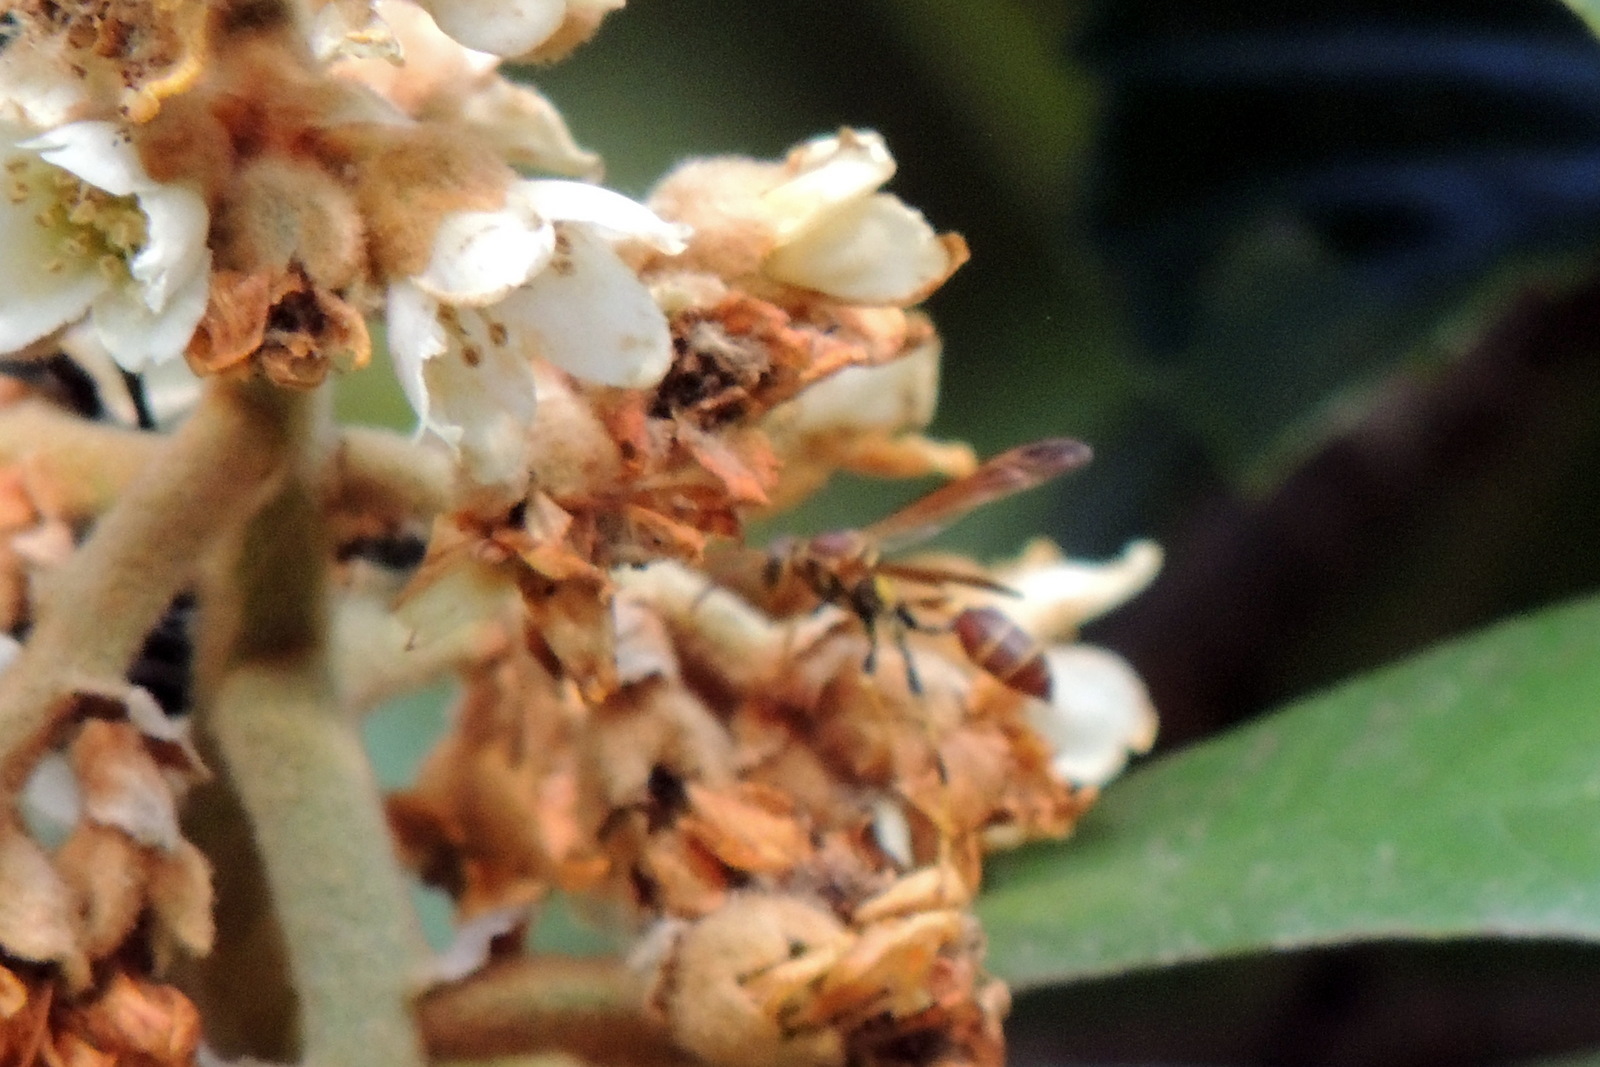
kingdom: Animalia
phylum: Arthropoda
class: Insecta
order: Hymenoptera
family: Vespidae
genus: Mischocyttarus
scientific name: Mischocyttarus mexicanus
